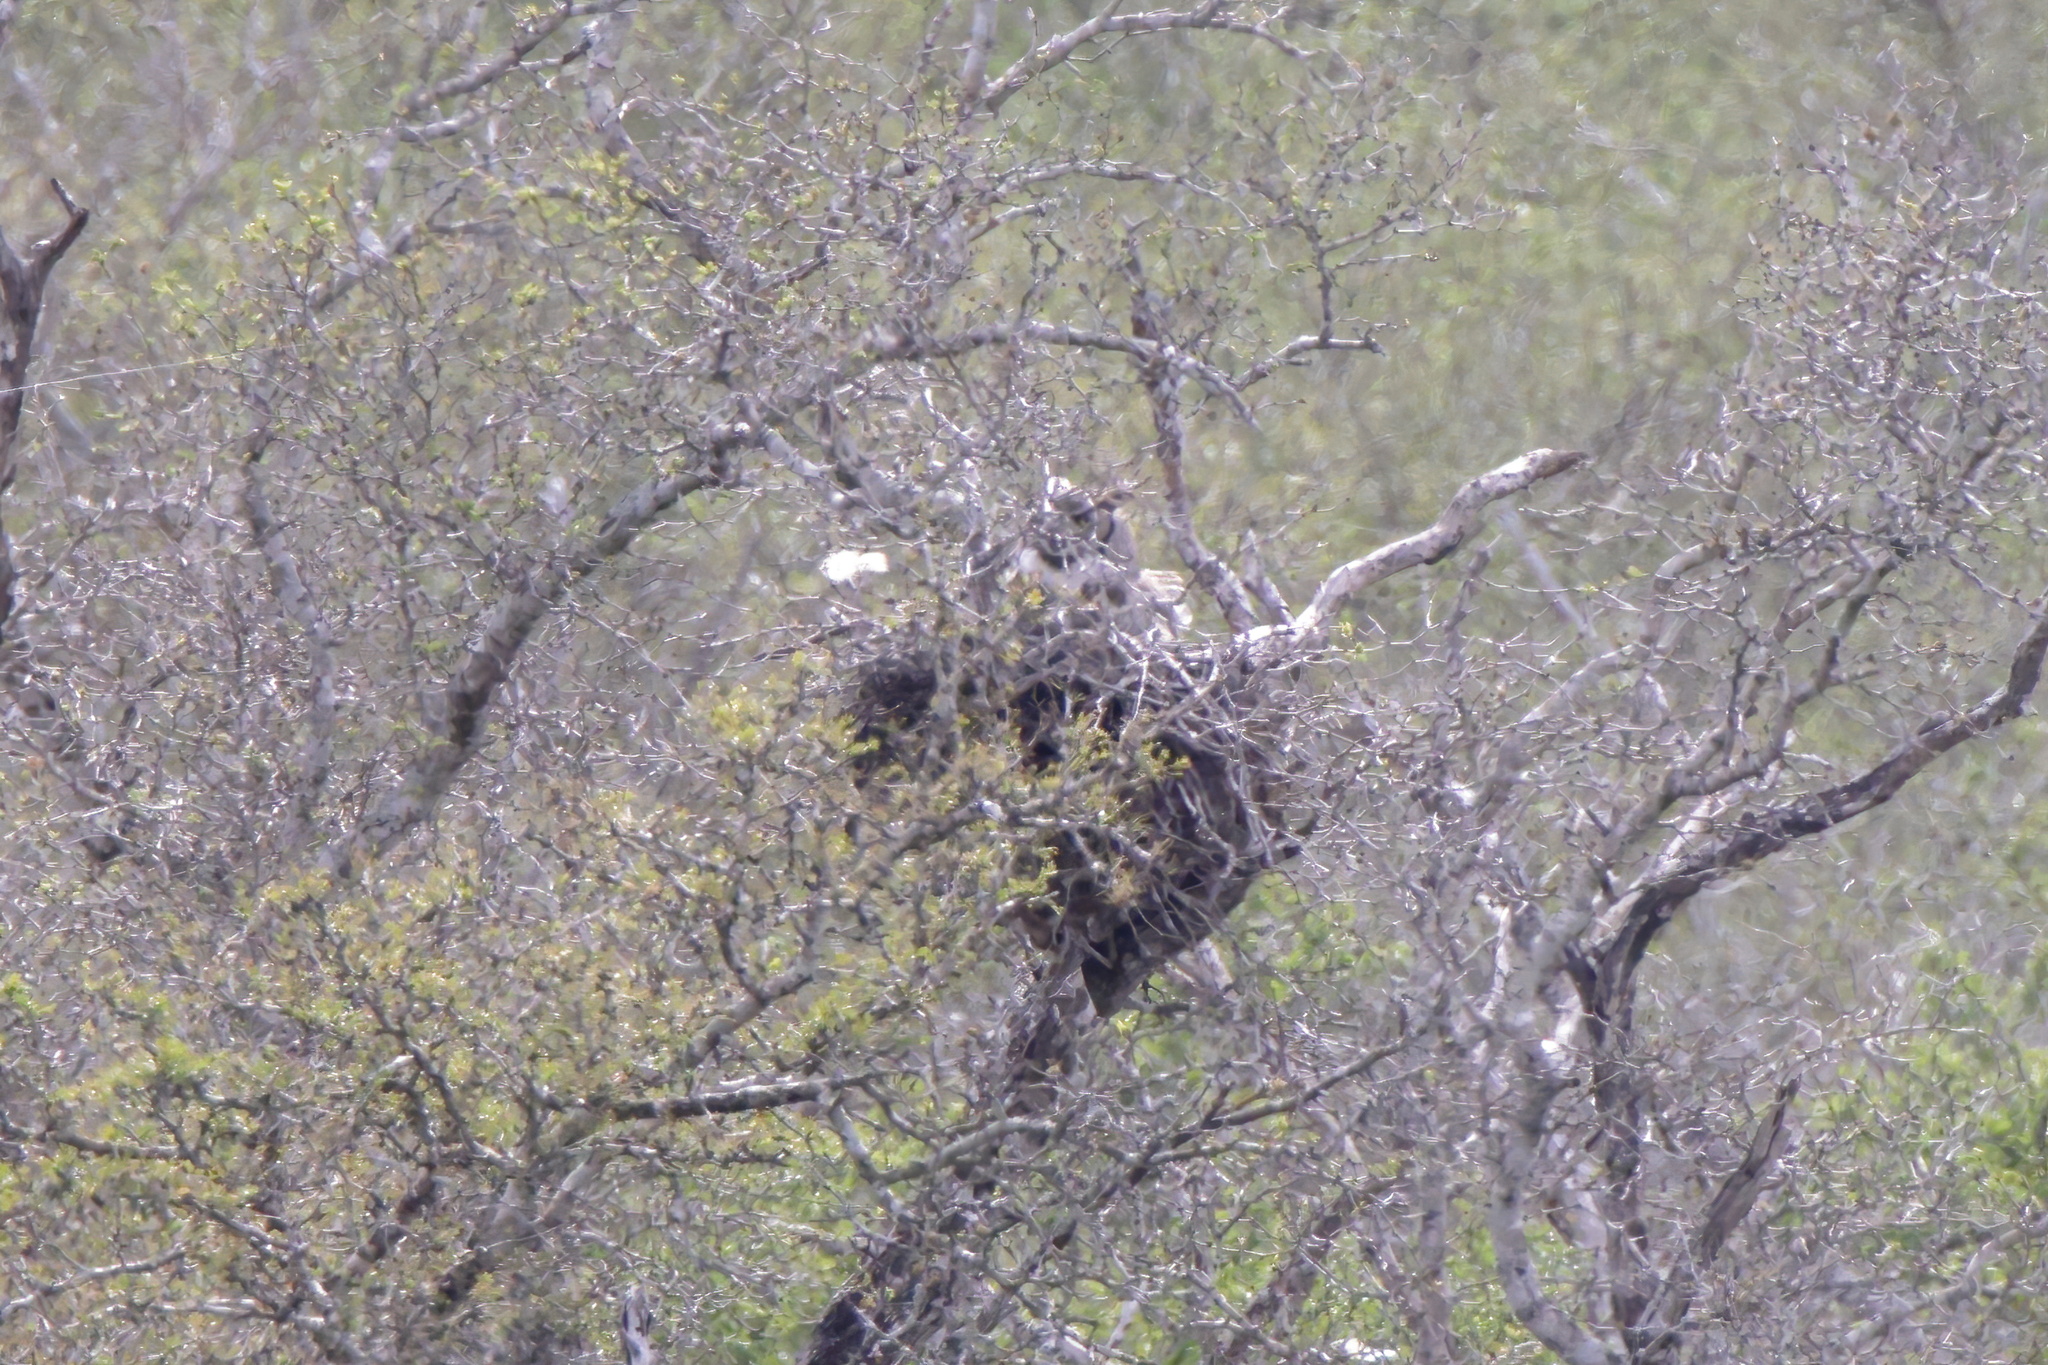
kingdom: Animalia
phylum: Chordata
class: Aves
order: Strigiformes
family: Strigidae
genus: Bubo
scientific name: Bubo virginianus
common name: Great horned owl
